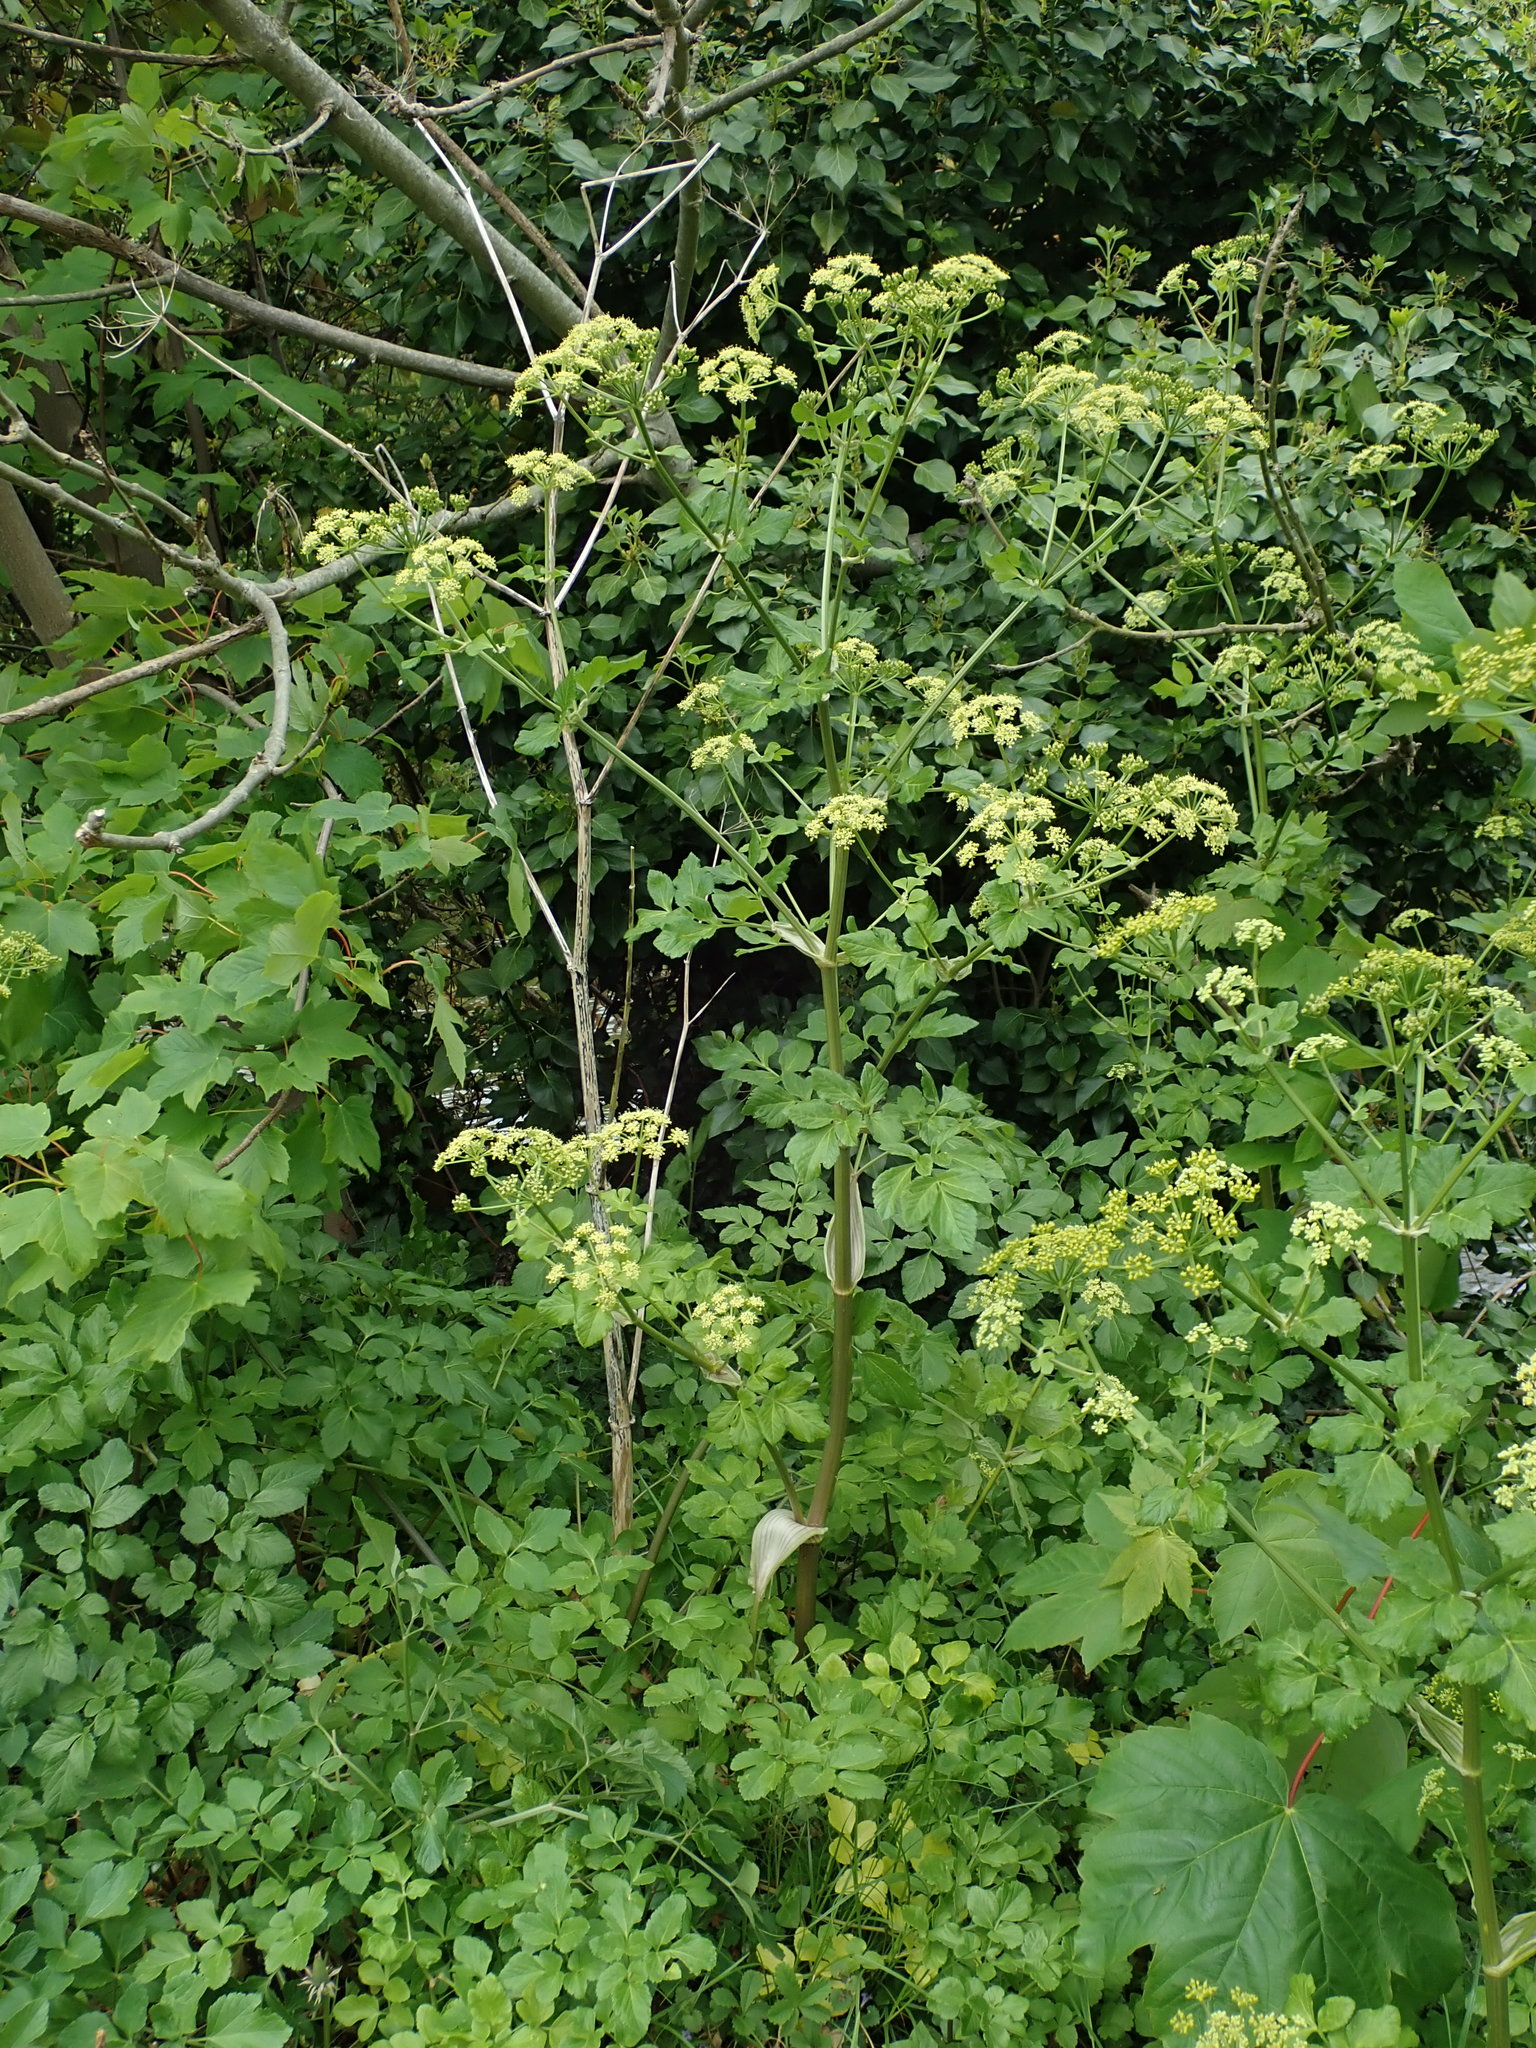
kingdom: Plantae
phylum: Tracheophyta
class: Magnoliopsida
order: Apiales
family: Apiaceae
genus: Smyrnium
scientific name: Smyrnium olusatrum
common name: Alexanders
